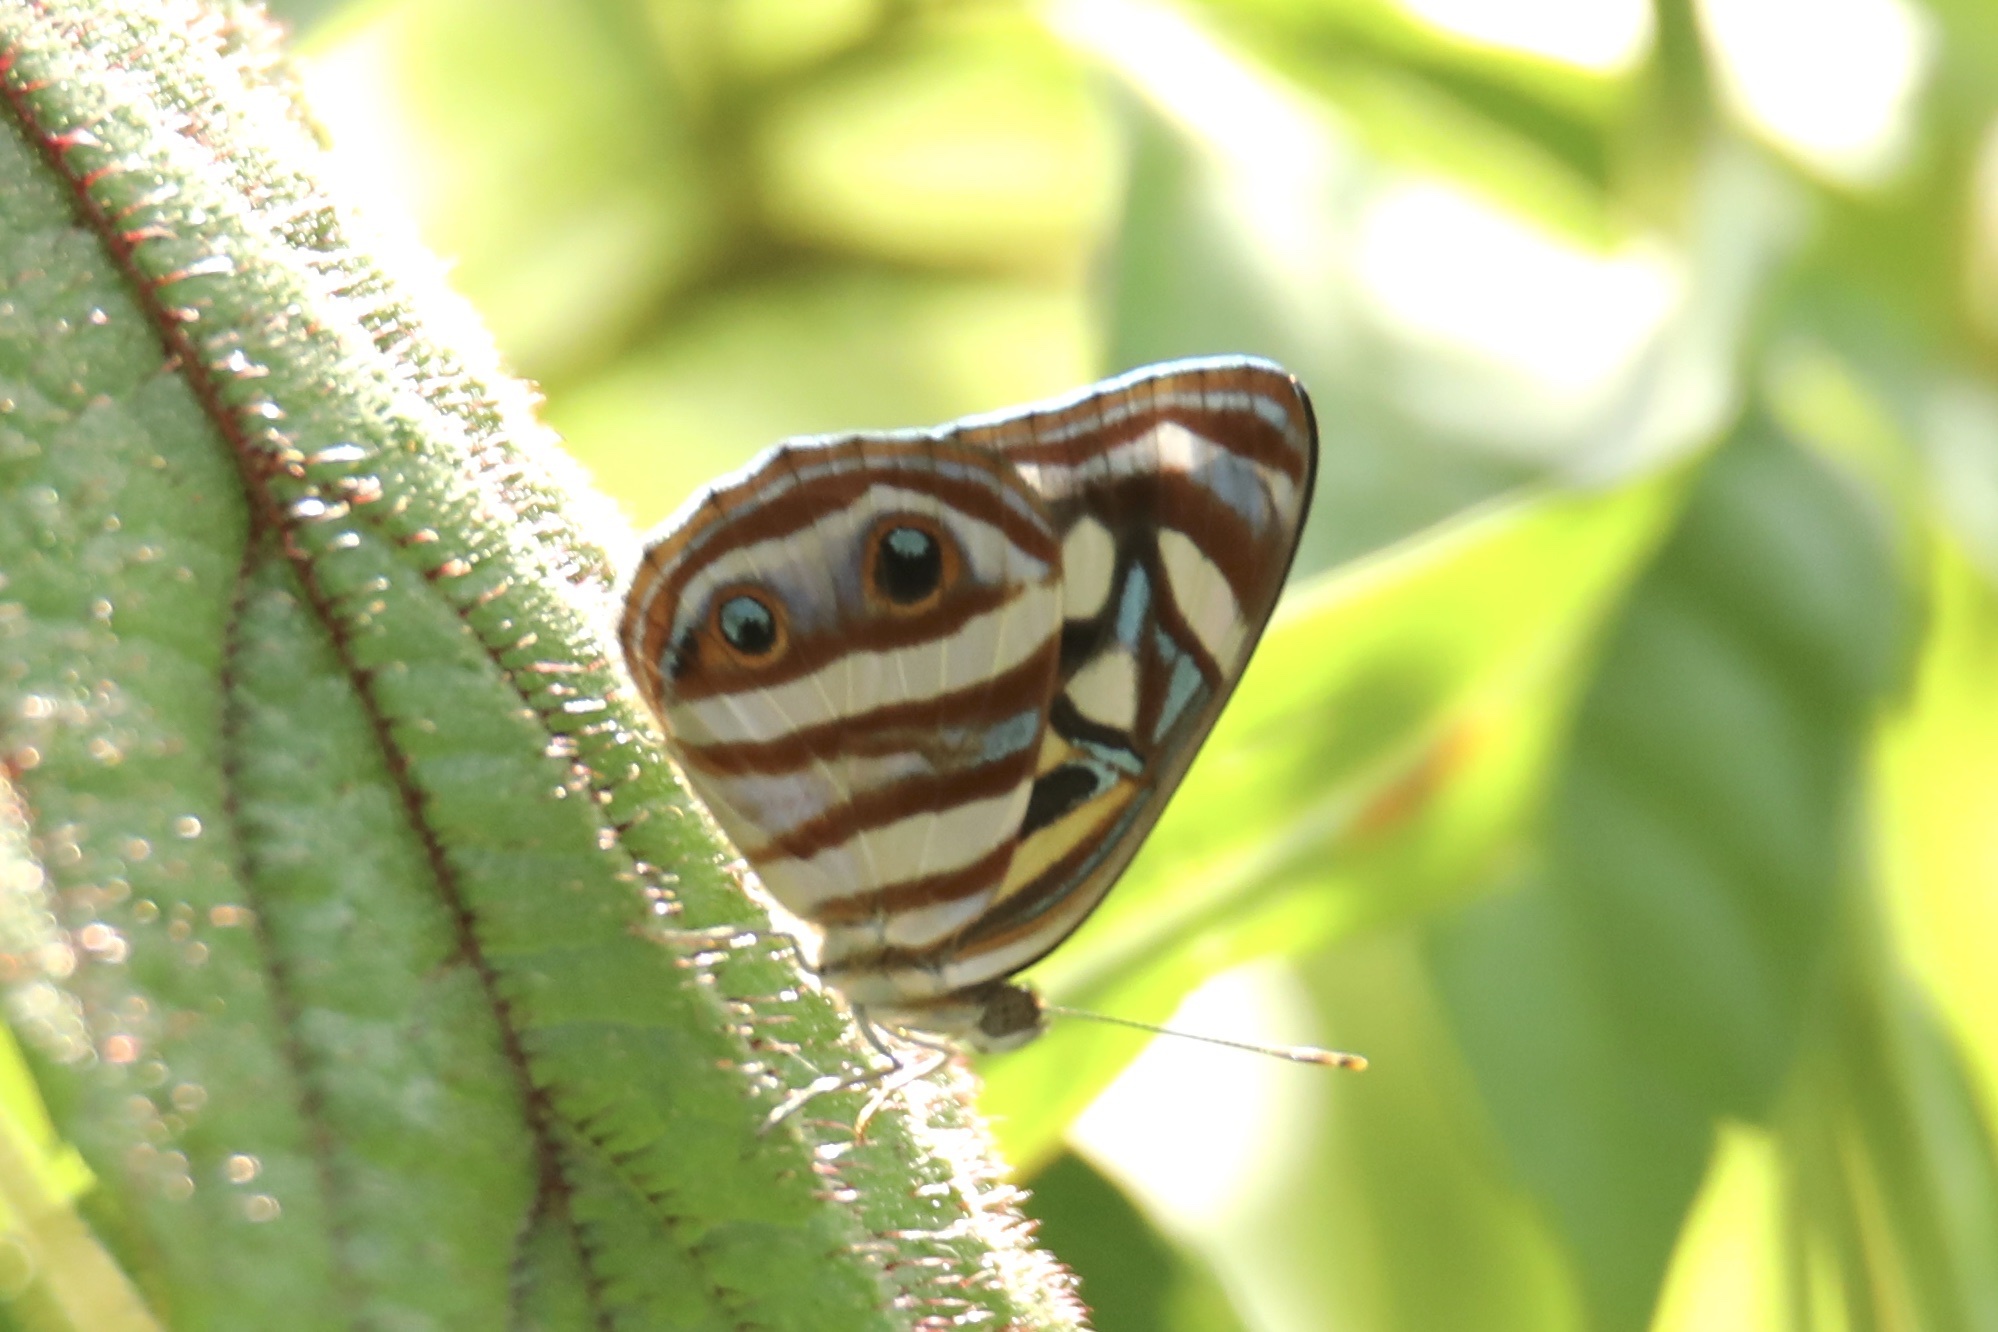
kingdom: Animalia
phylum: Arthropoda
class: Insecta
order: Lepidoptera
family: Nymphalidae
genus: Dynamine
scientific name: Dynamine mylitta
